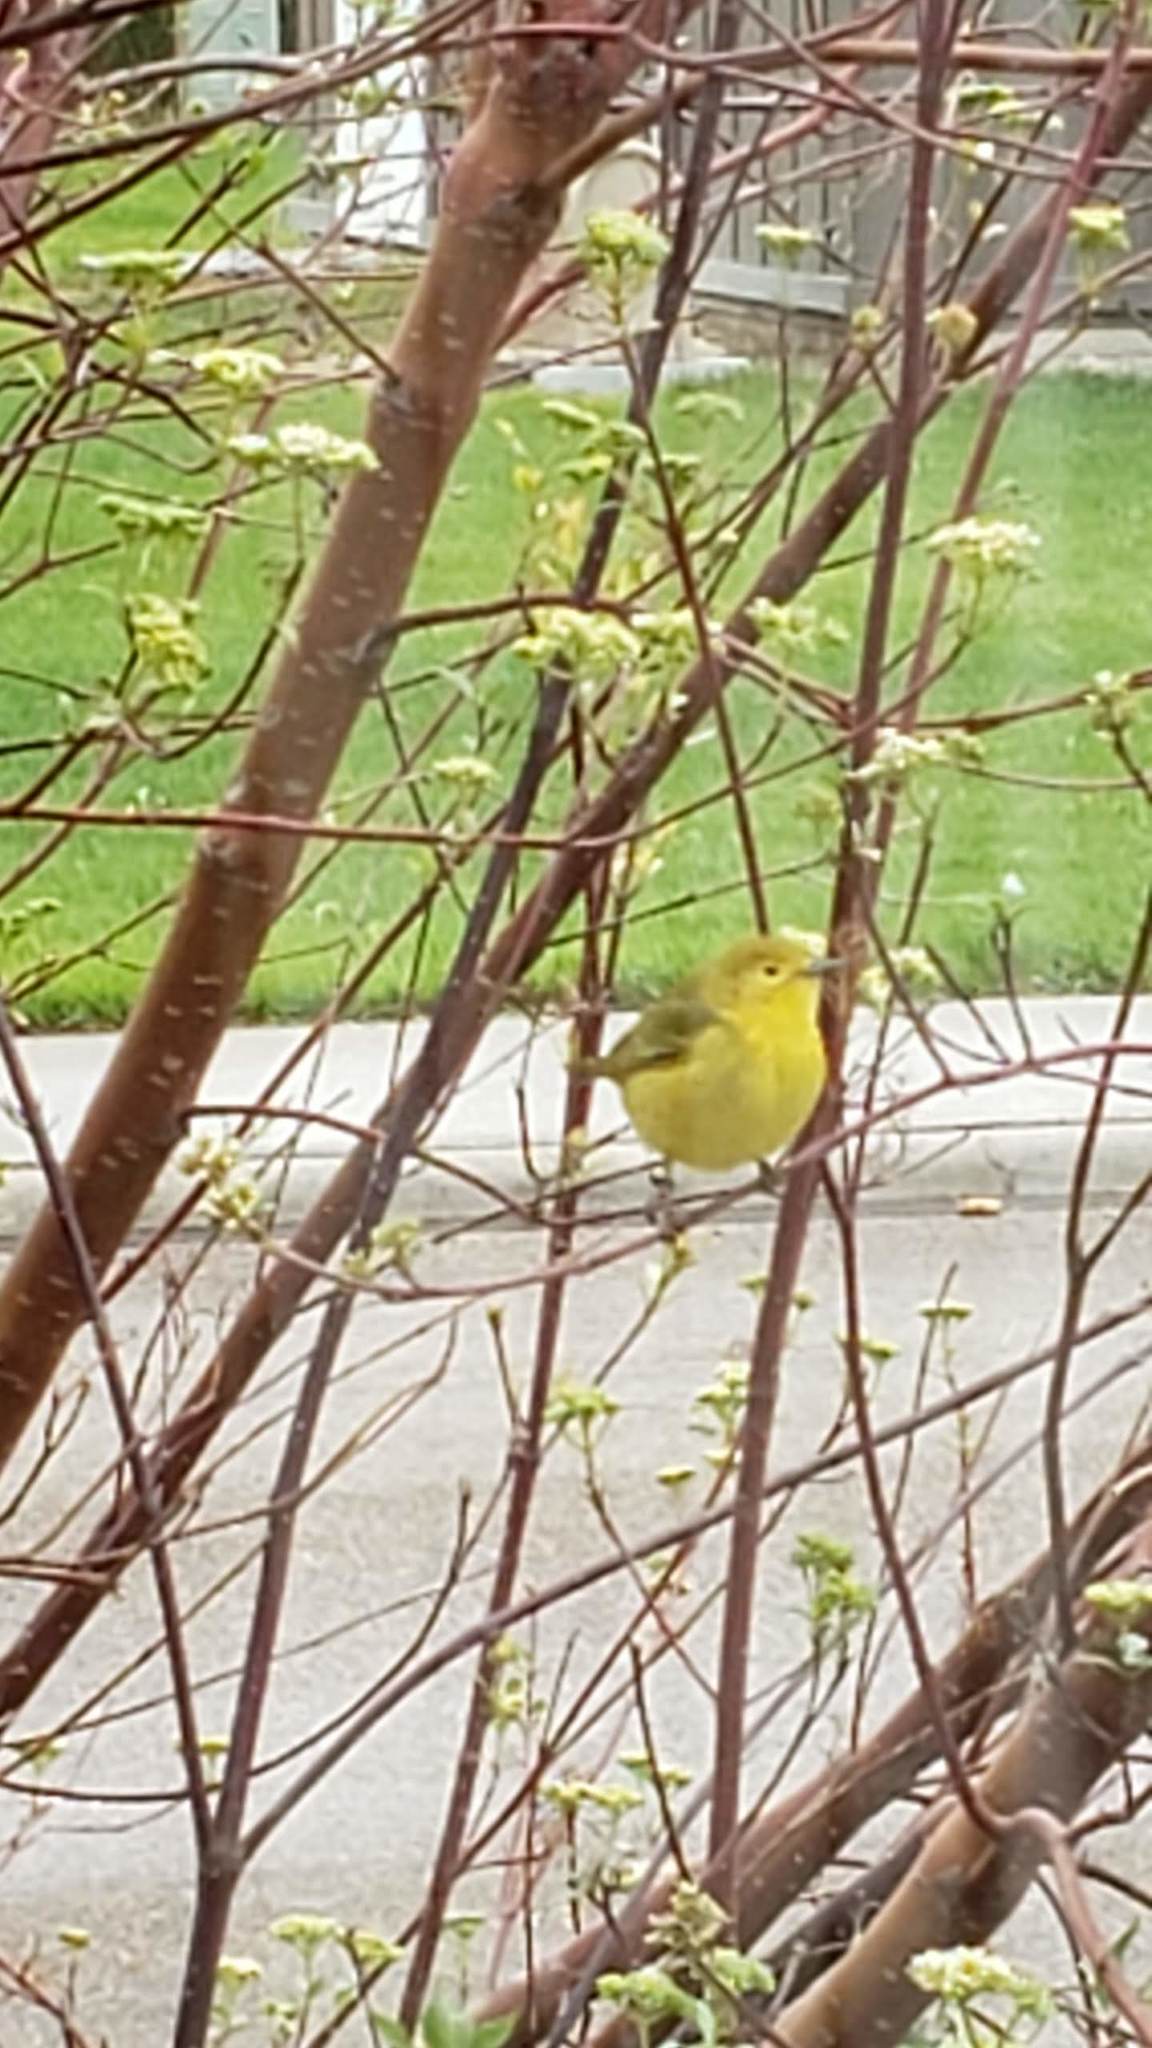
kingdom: Animalia
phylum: Chordata
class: Aves
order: Passeriformes
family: Parulidae
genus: Setophaga
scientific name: Setophaga petechia
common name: Yellow warbler
